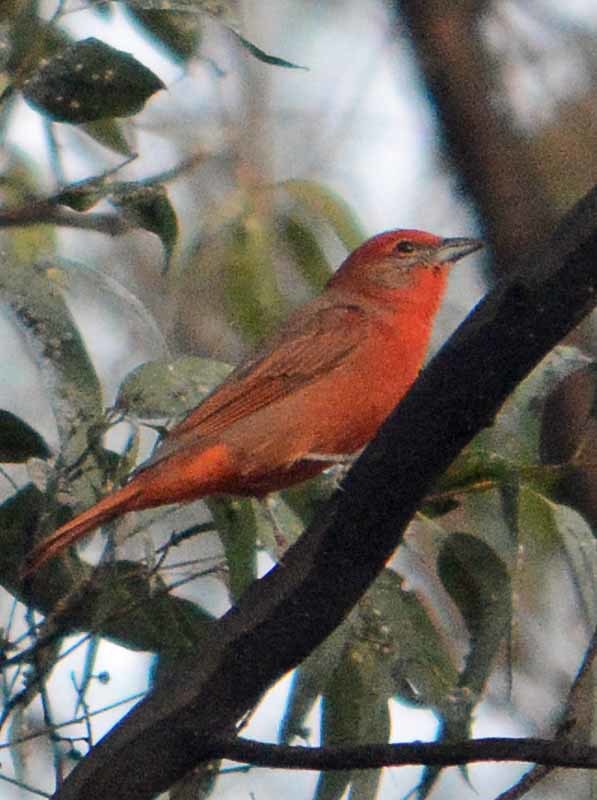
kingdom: Animalia
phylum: Chordata
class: Aves
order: Passeriformes
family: Cardinalidae
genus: Piranga
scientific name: Piranga flava
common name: Red tanager
